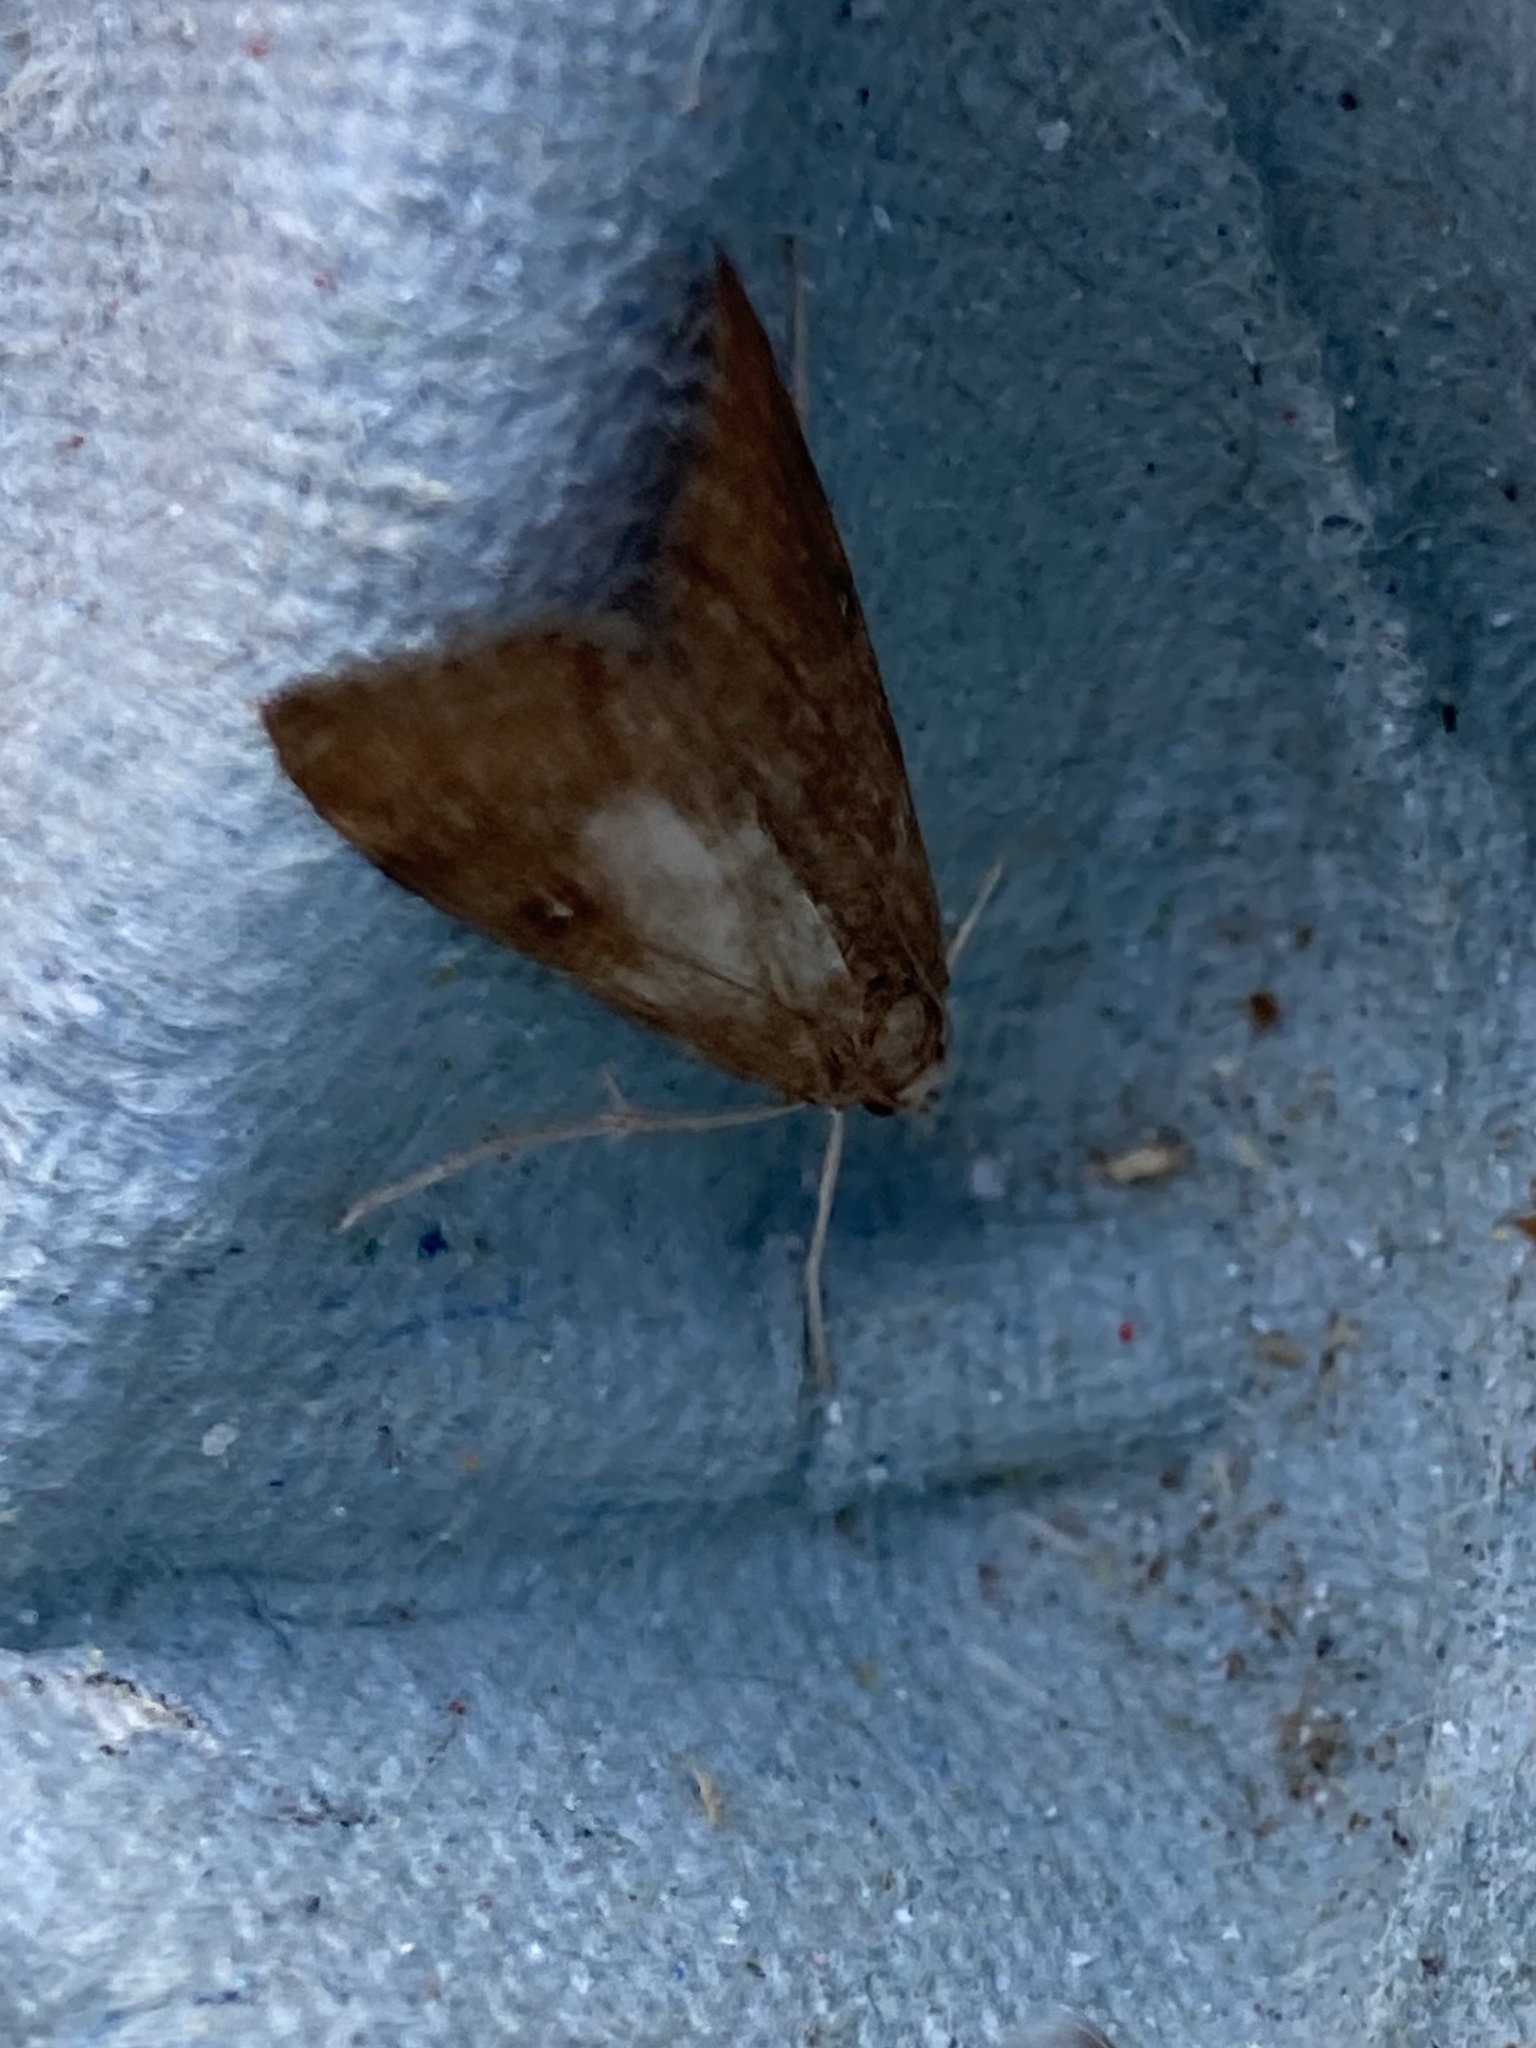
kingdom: Animalia
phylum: Arthropoda
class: Insecta
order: Lepidoptera
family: Crambidae
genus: Parapoynx
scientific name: Parapoynx stratiotata
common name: Ringed china-mark
